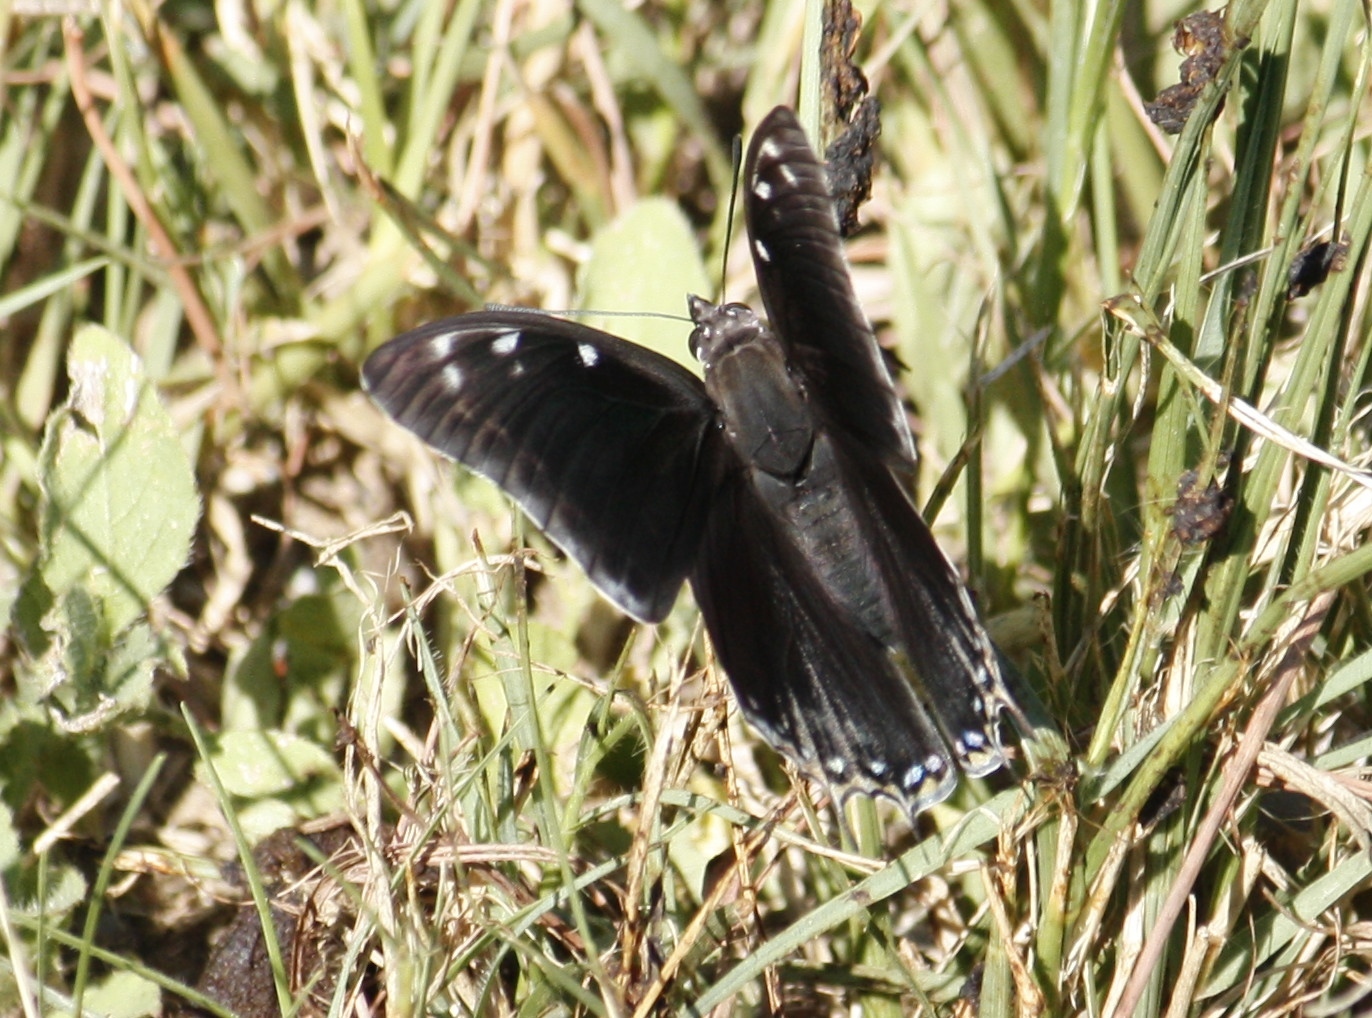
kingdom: Animalia
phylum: Arthropoda
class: Insecta
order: Lepidoptera
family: Nymphalidae
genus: Charaxes
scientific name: Charaxes vansoni
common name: Van son's charaxes
